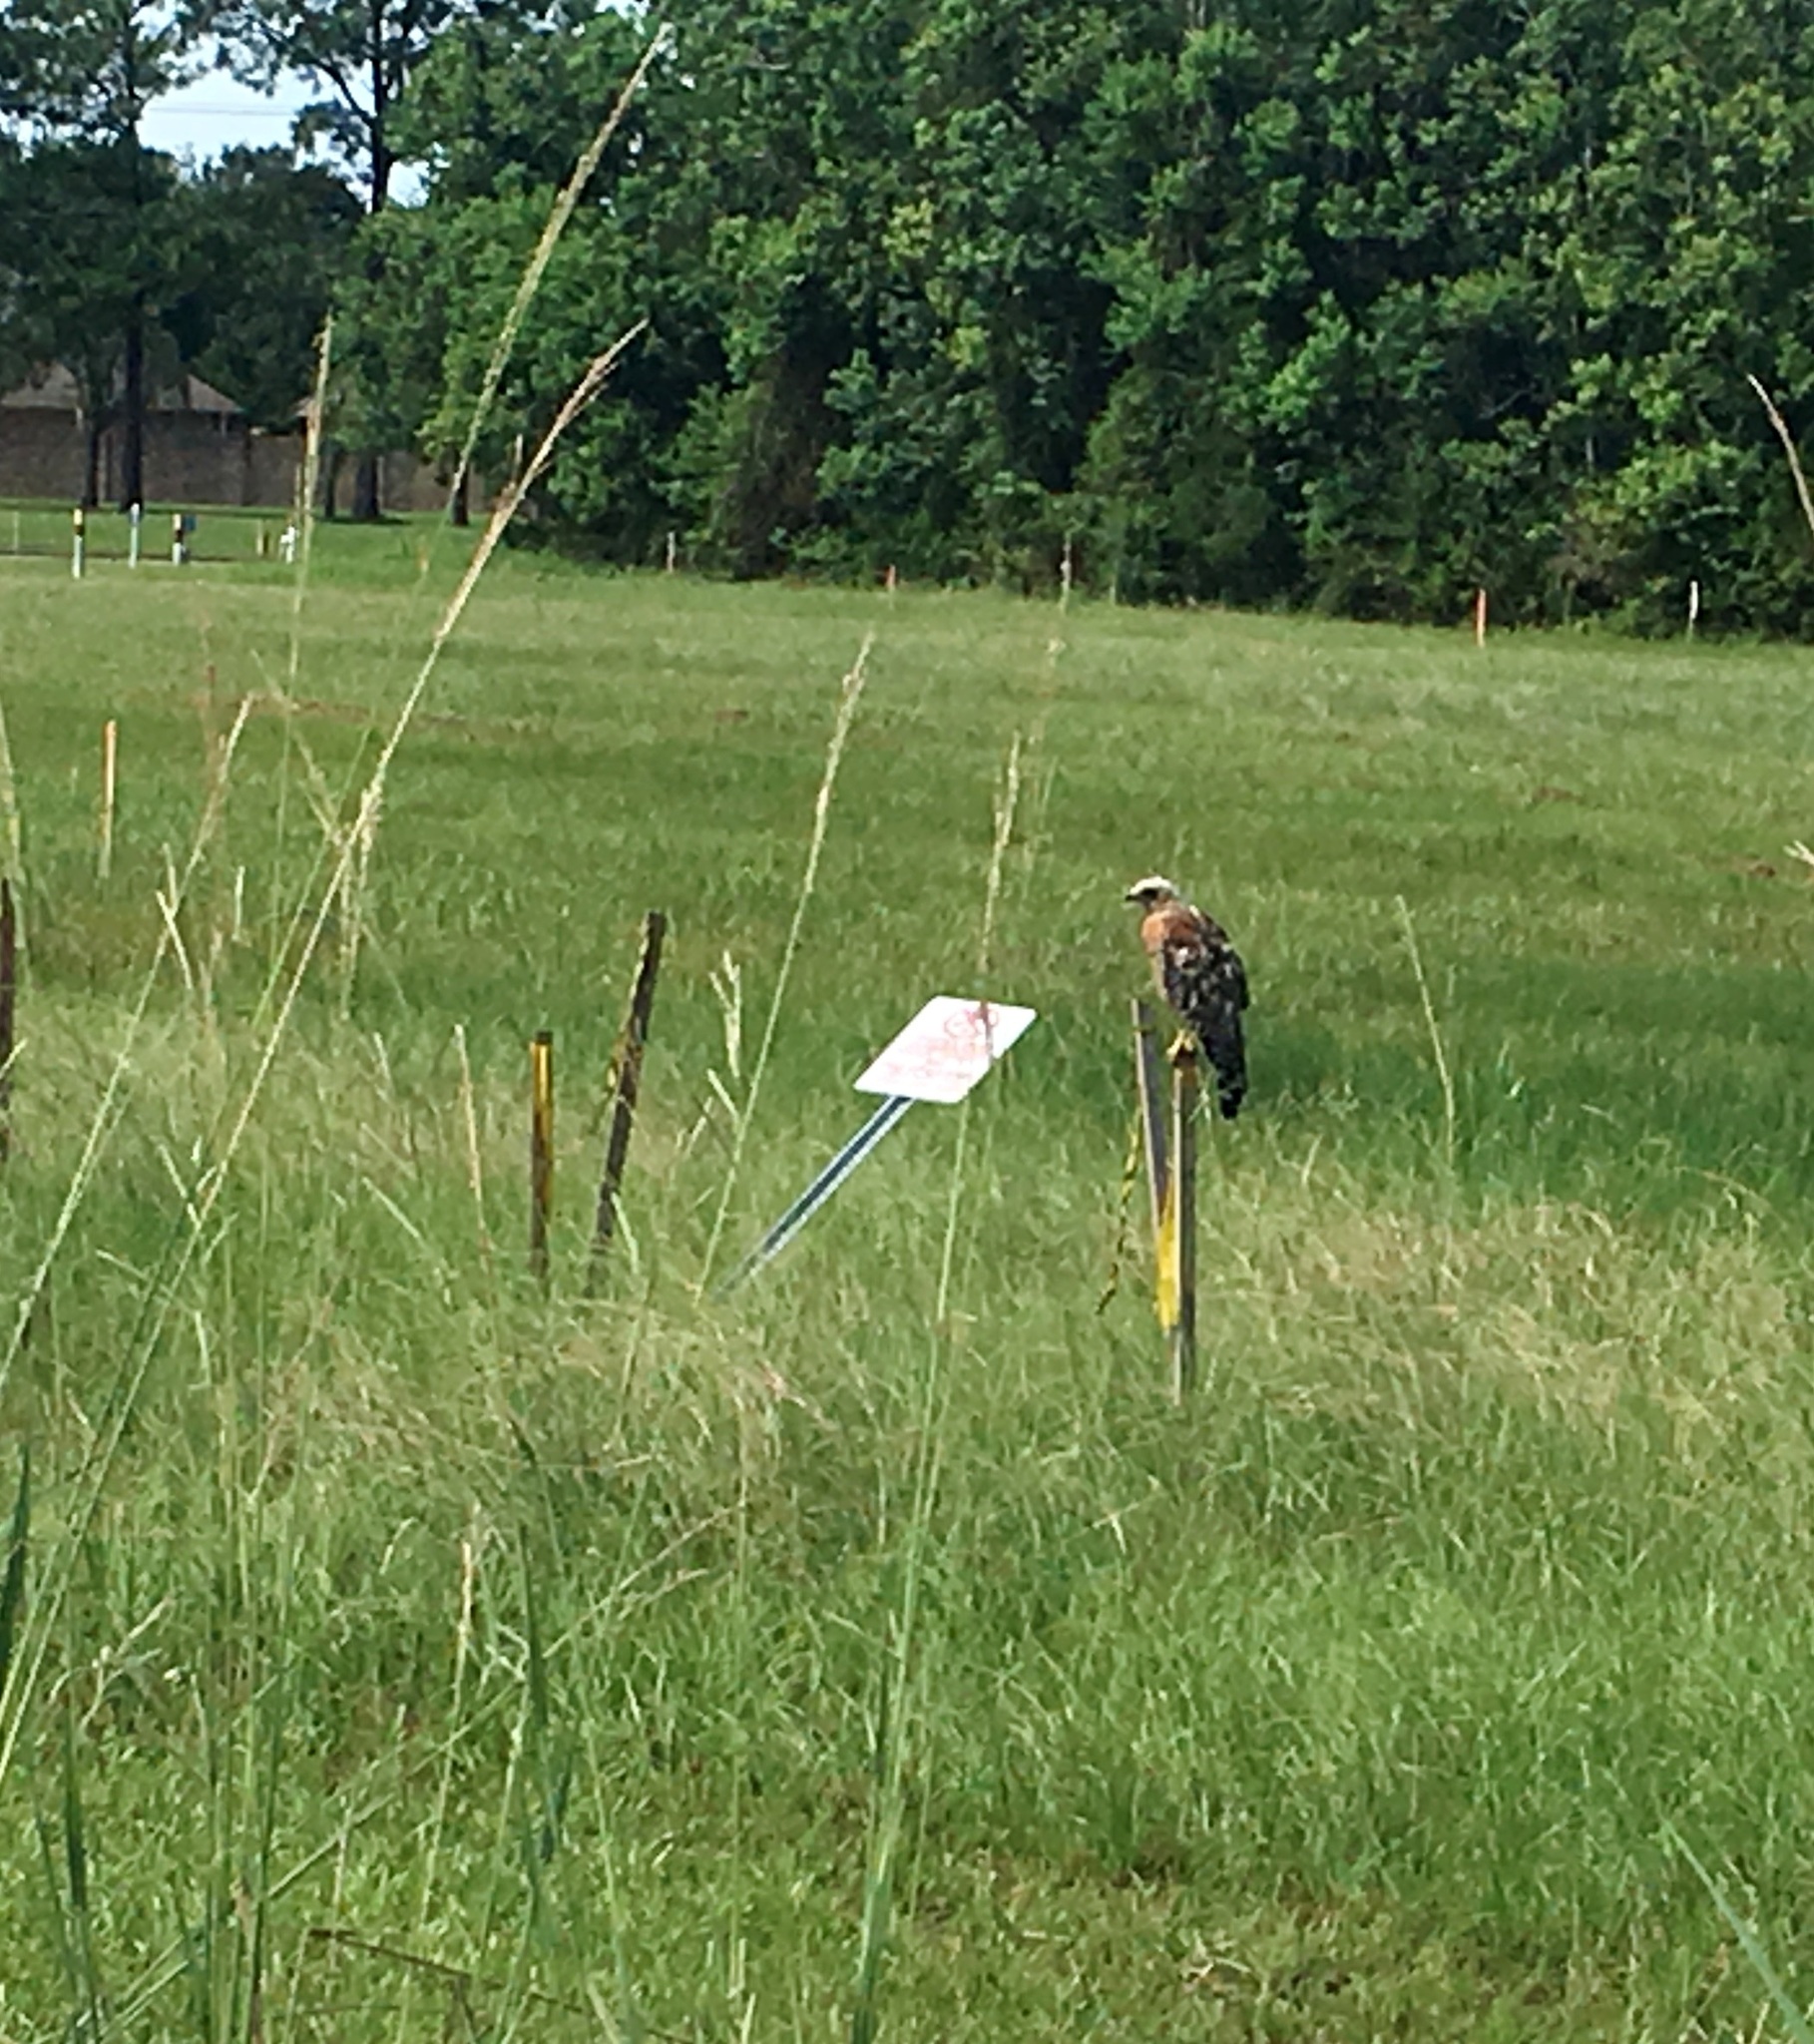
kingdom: Animalia
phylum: Chordata
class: Aves
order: Accipitriformes
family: Accipitridae
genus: Buteo
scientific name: Buteo lineatus
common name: Red-shouldered hawk
